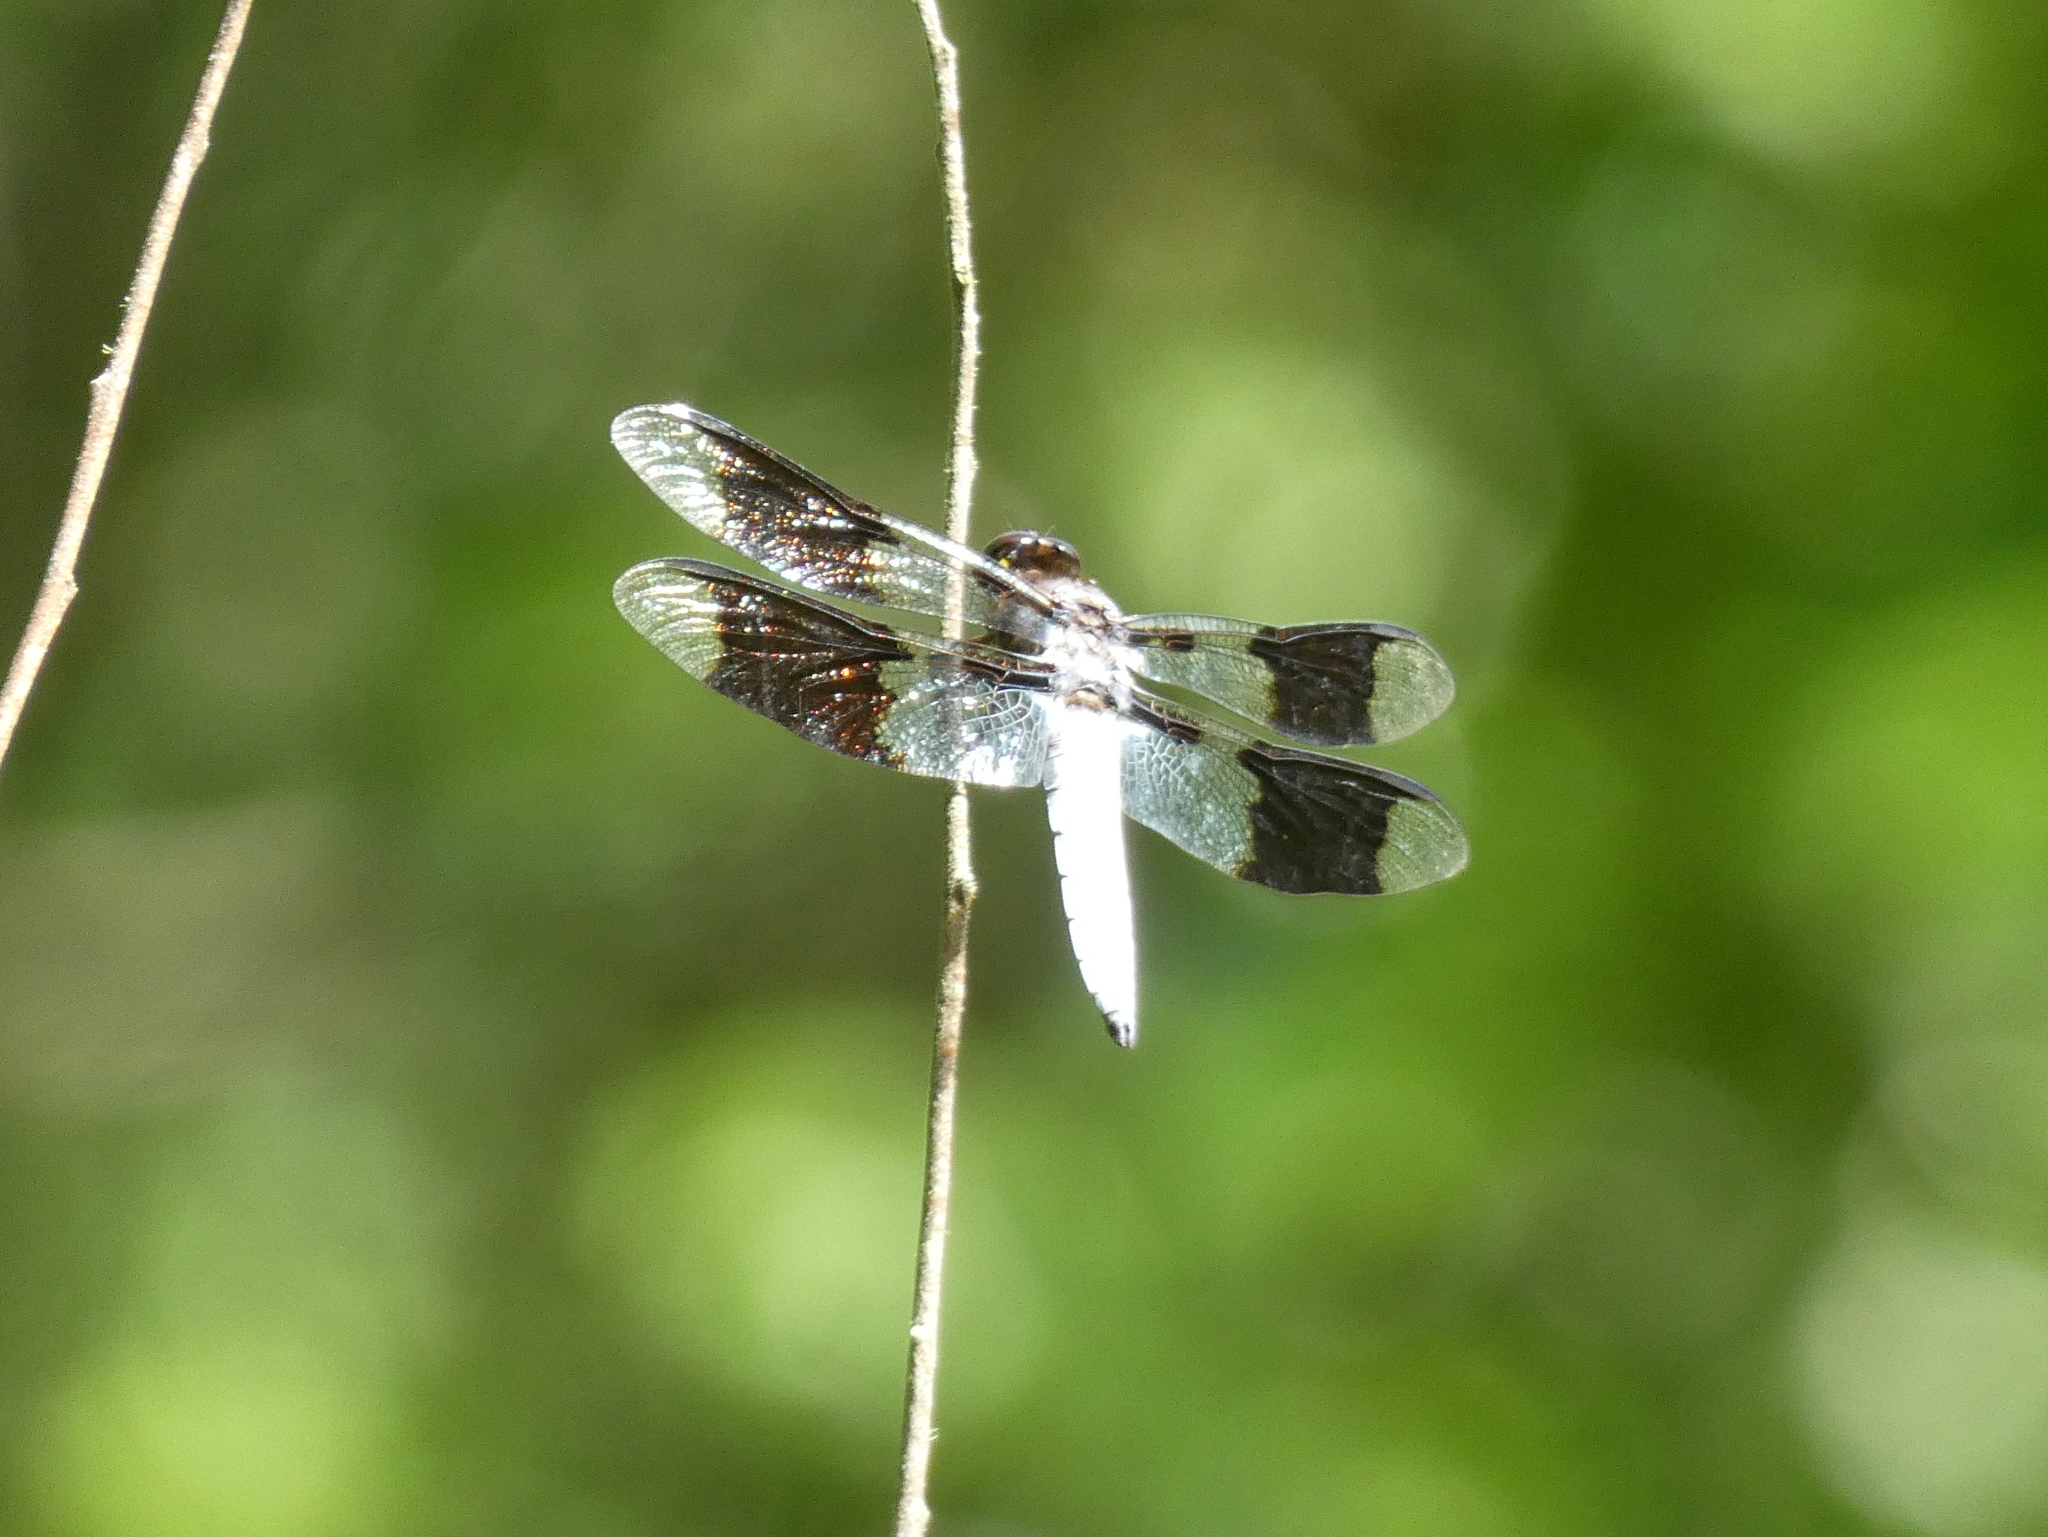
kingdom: Animalia
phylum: Arthropoda
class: Insecta
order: Odonata
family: Libellulidae
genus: Plathemis
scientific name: Plathemis lydia
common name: Common whitetail
